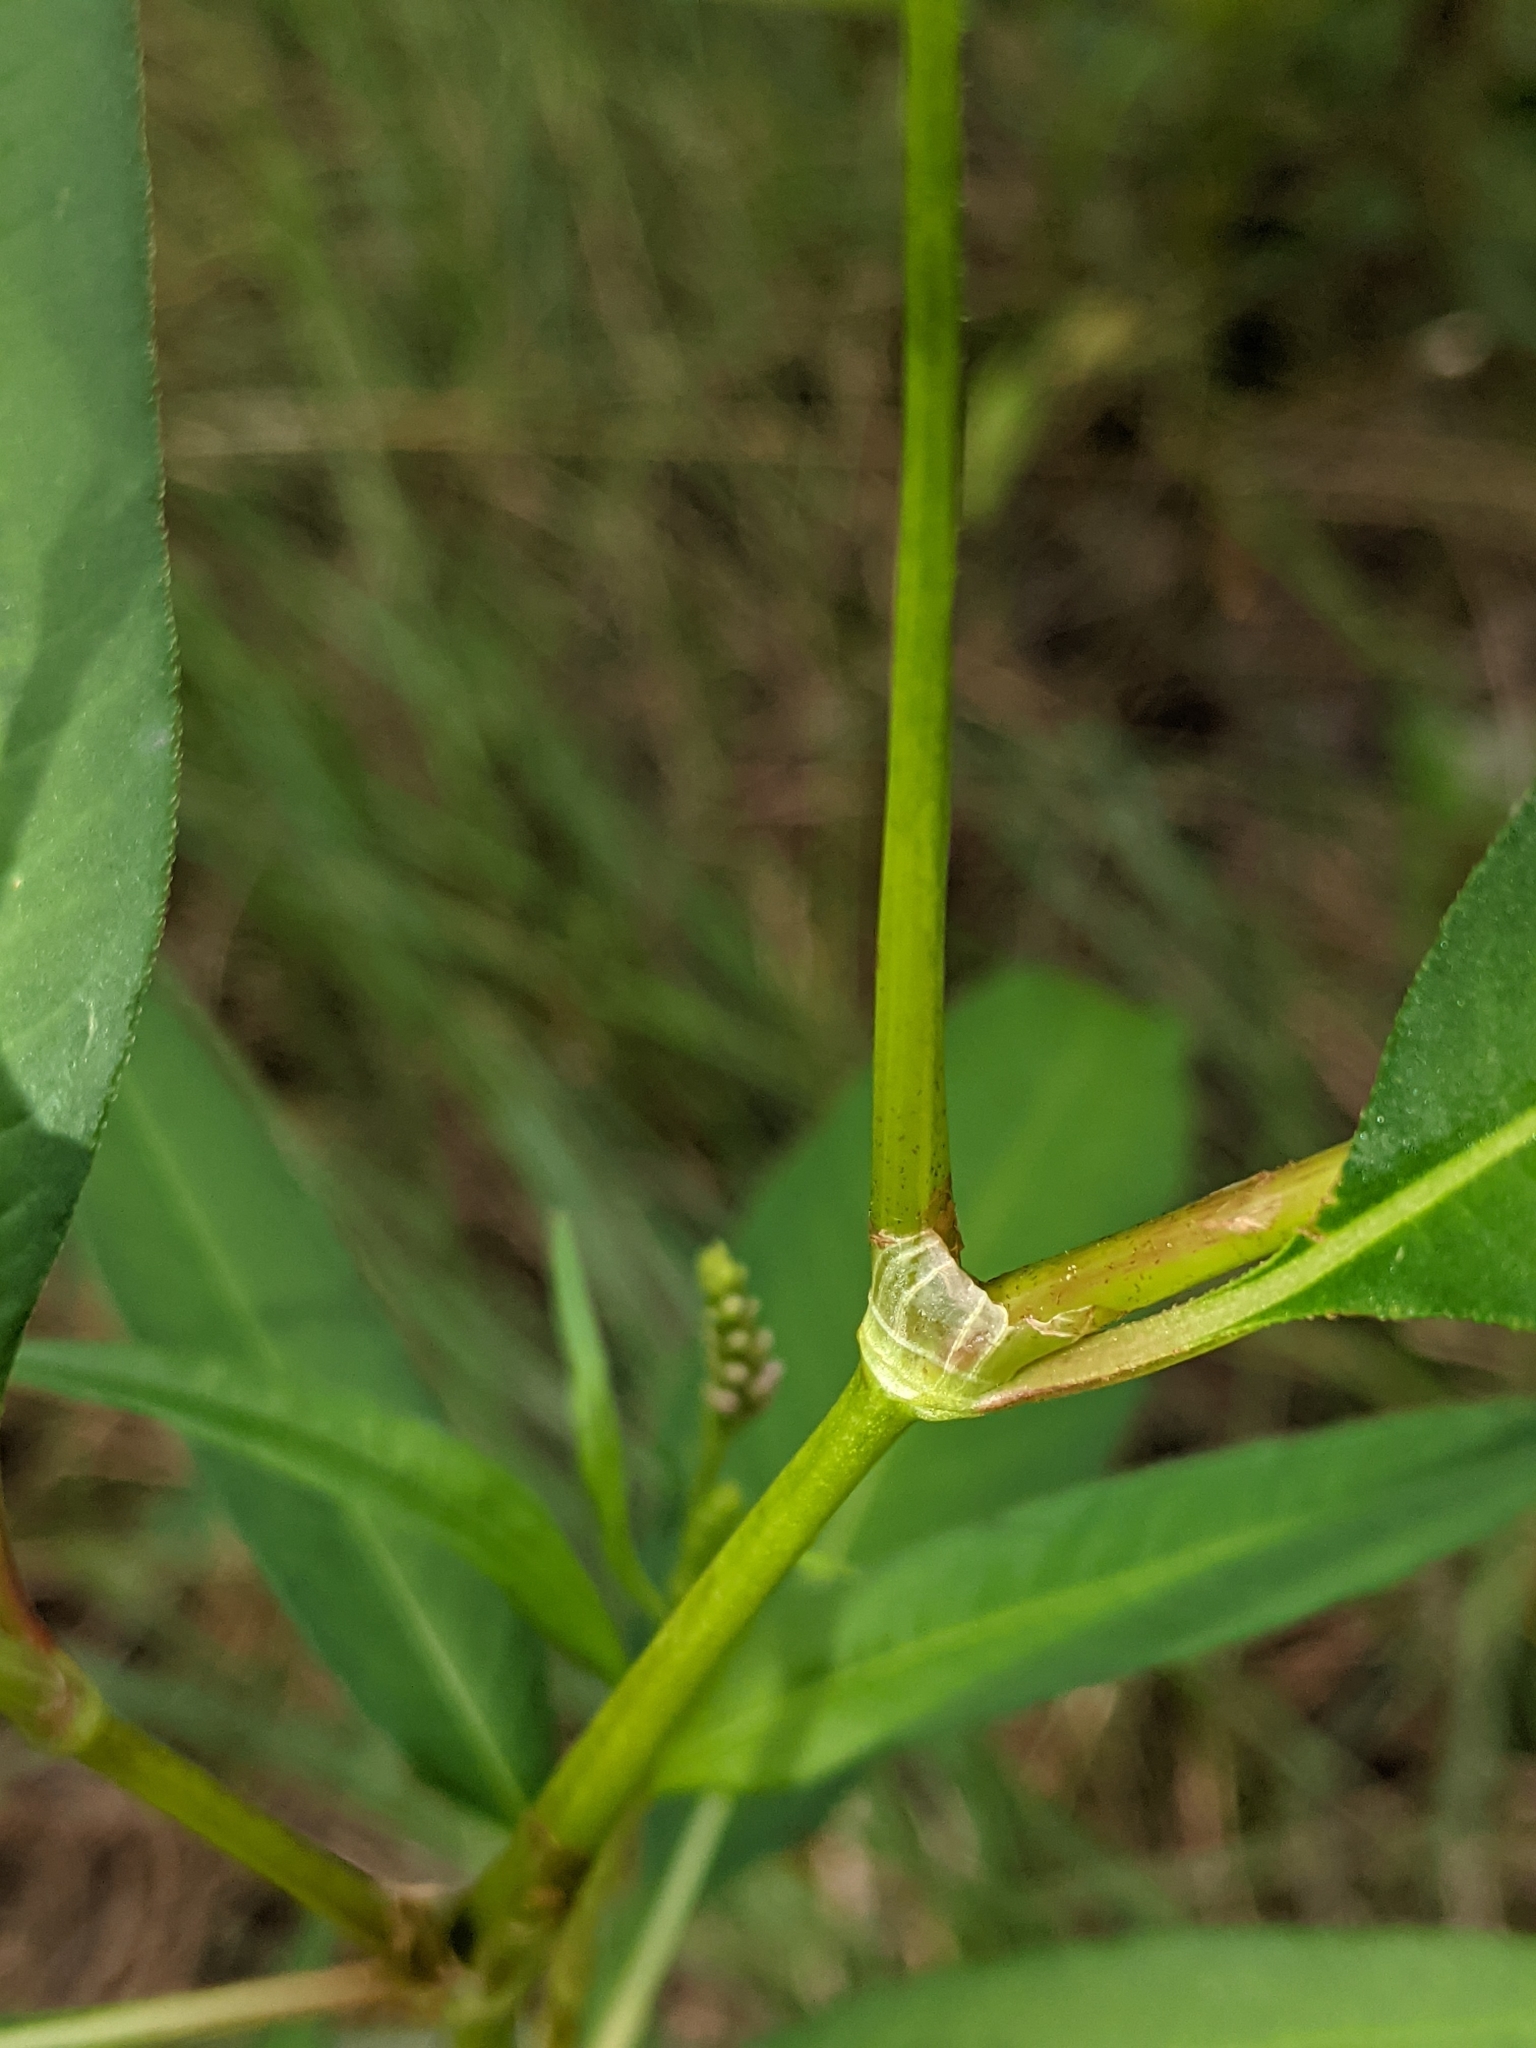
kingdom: Plantae
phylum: Tracheophyta
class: Magnoliopsida
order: Caryophyllales
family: Polygonaceae
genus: Persicaria
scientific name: Persicaria pensylvanica
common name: Pinkweed
